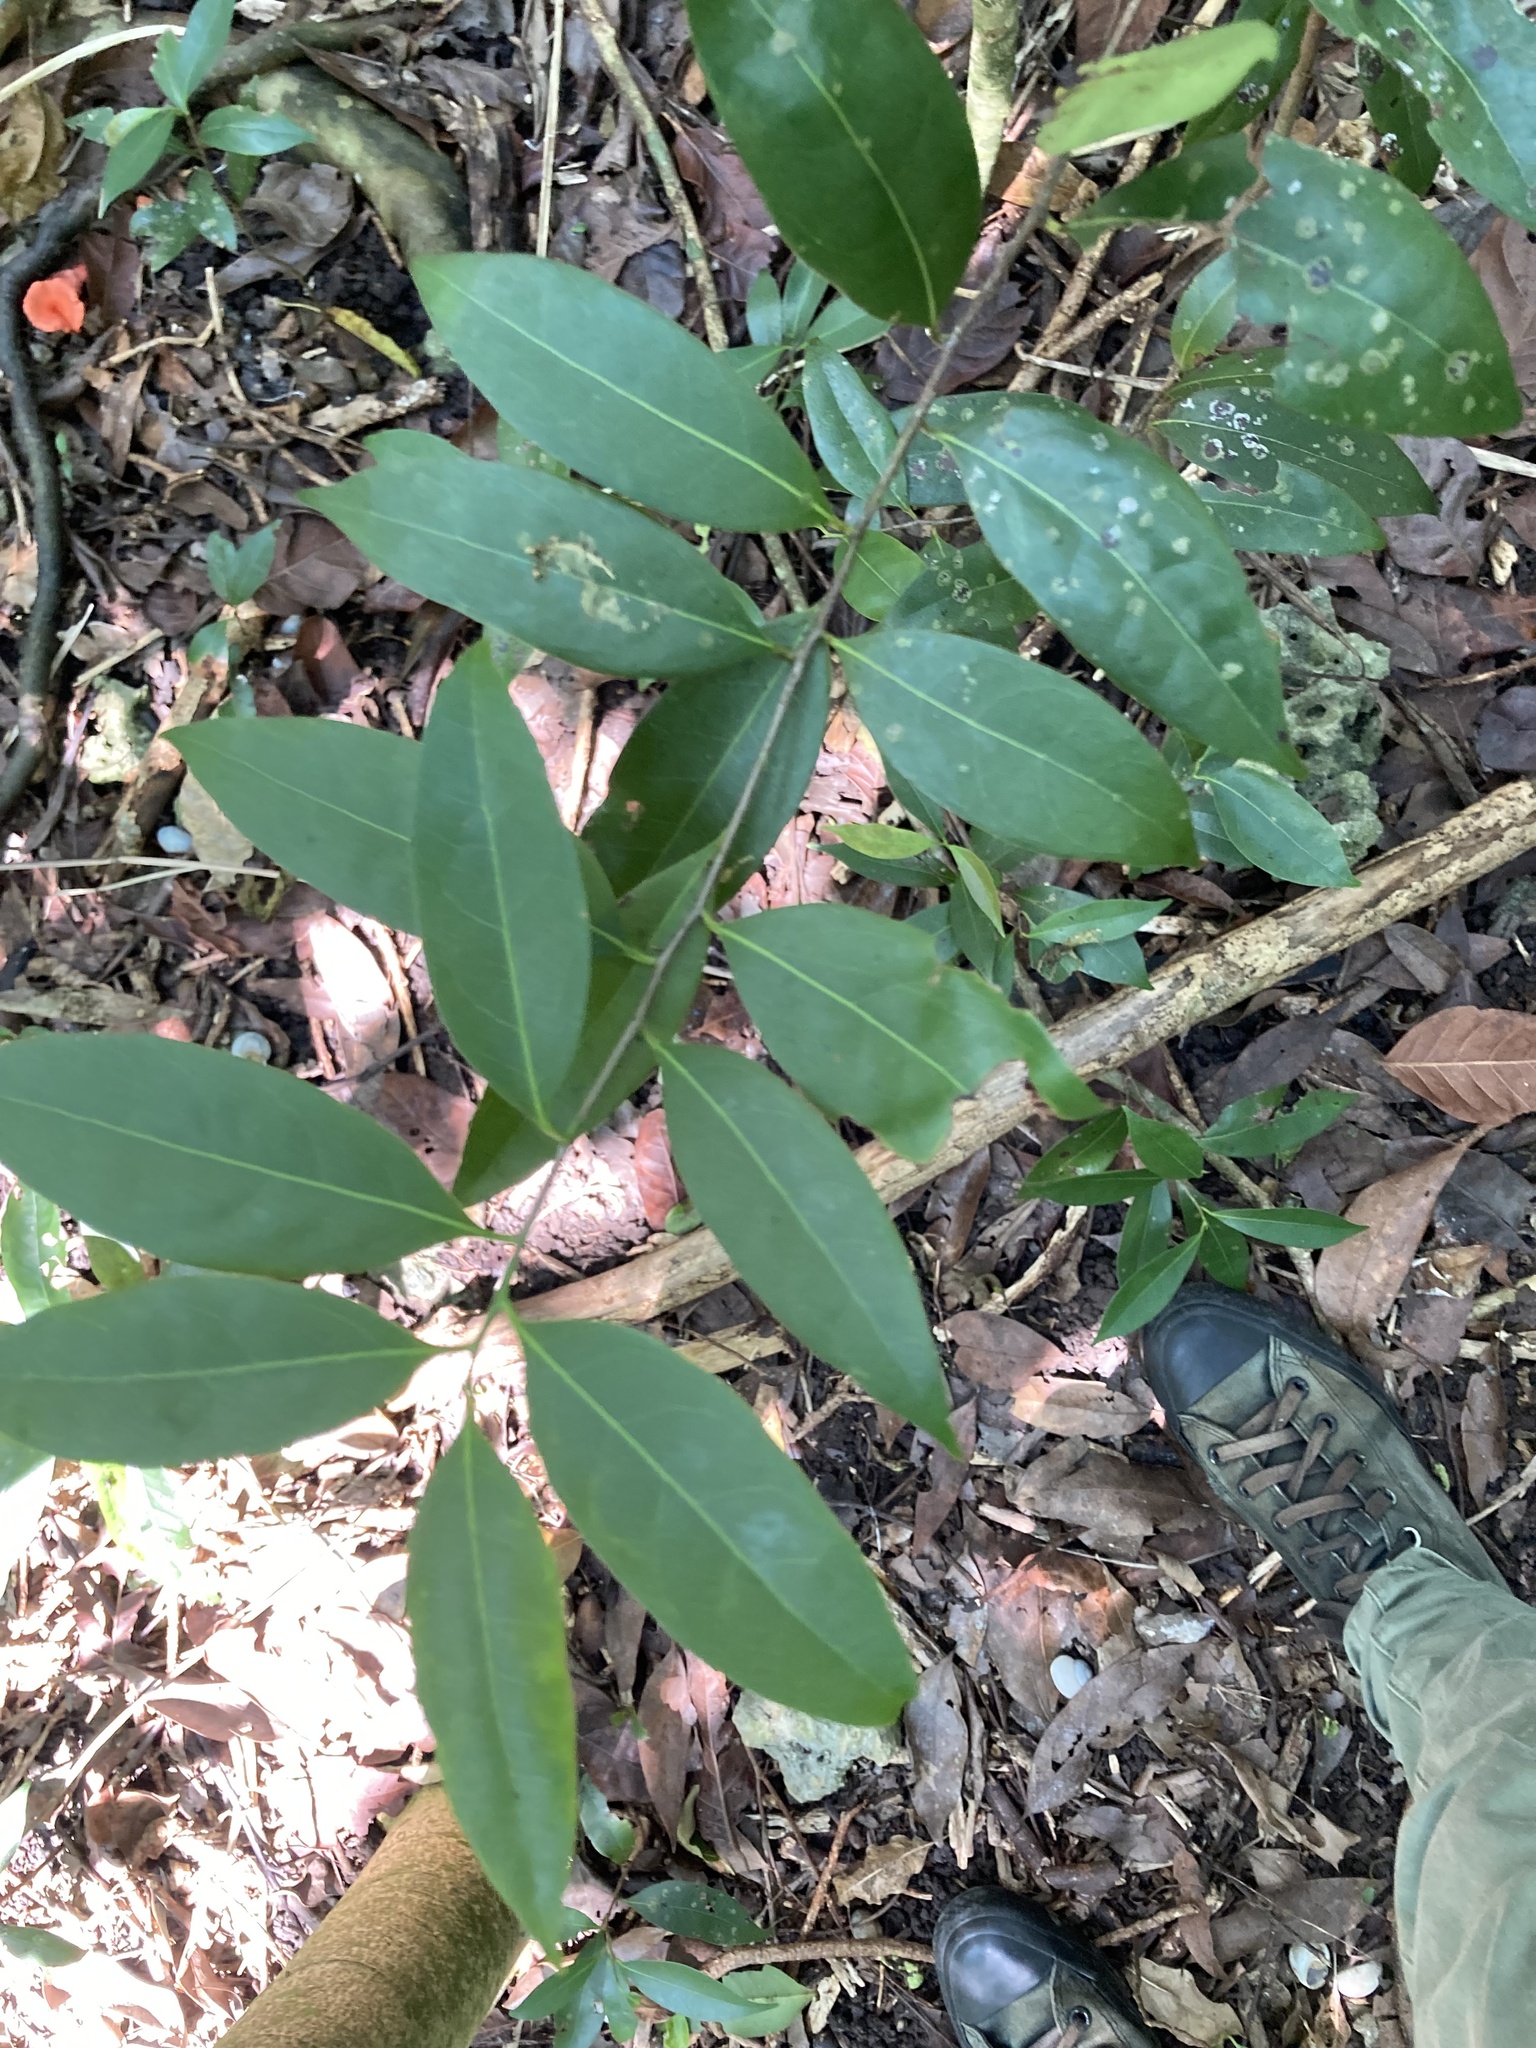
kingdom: Plantae
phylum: Tracheophyta
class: Magnoliopsida
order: Laurales
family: Lauraceae
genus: Damburneya
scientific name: Damburneya
